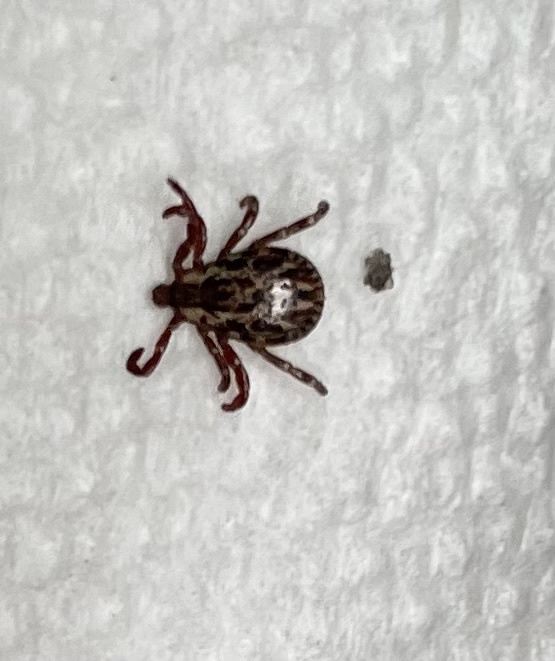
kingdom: Animalia
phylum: Arthropoda
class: Arachnida
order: Ixodida
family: Ixodidae
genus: Dermacentor
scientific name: Dermacentor variabilis
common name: American dog tick
